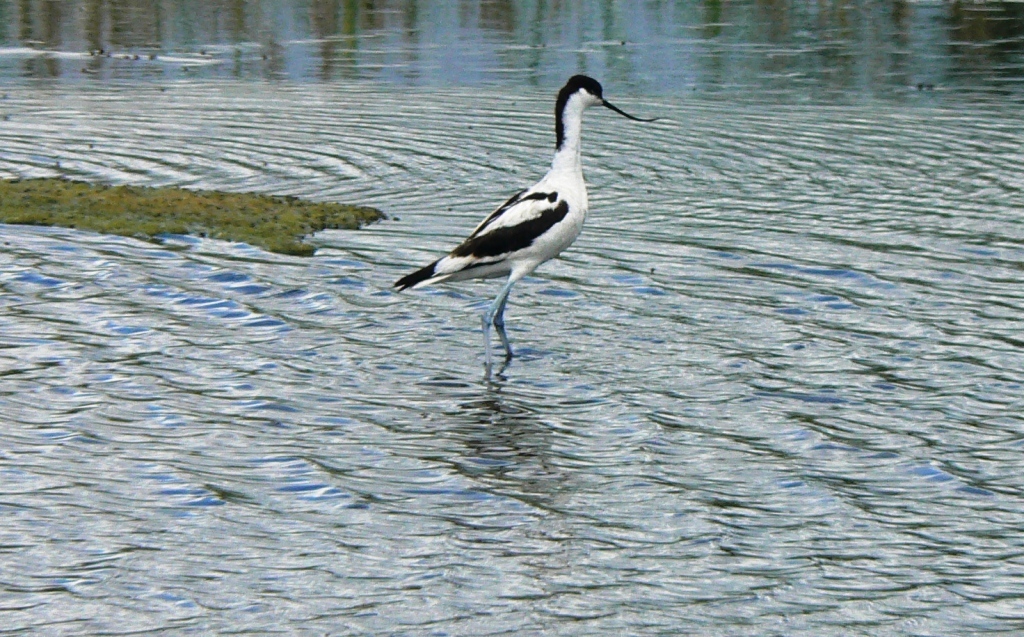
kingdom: Animalia
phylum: Chordata
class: Aves
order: Charadriiformes
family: Recurvirostridae
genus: Recurvirostra
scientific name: Recurvirostra avosetta
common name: Pied avocet
